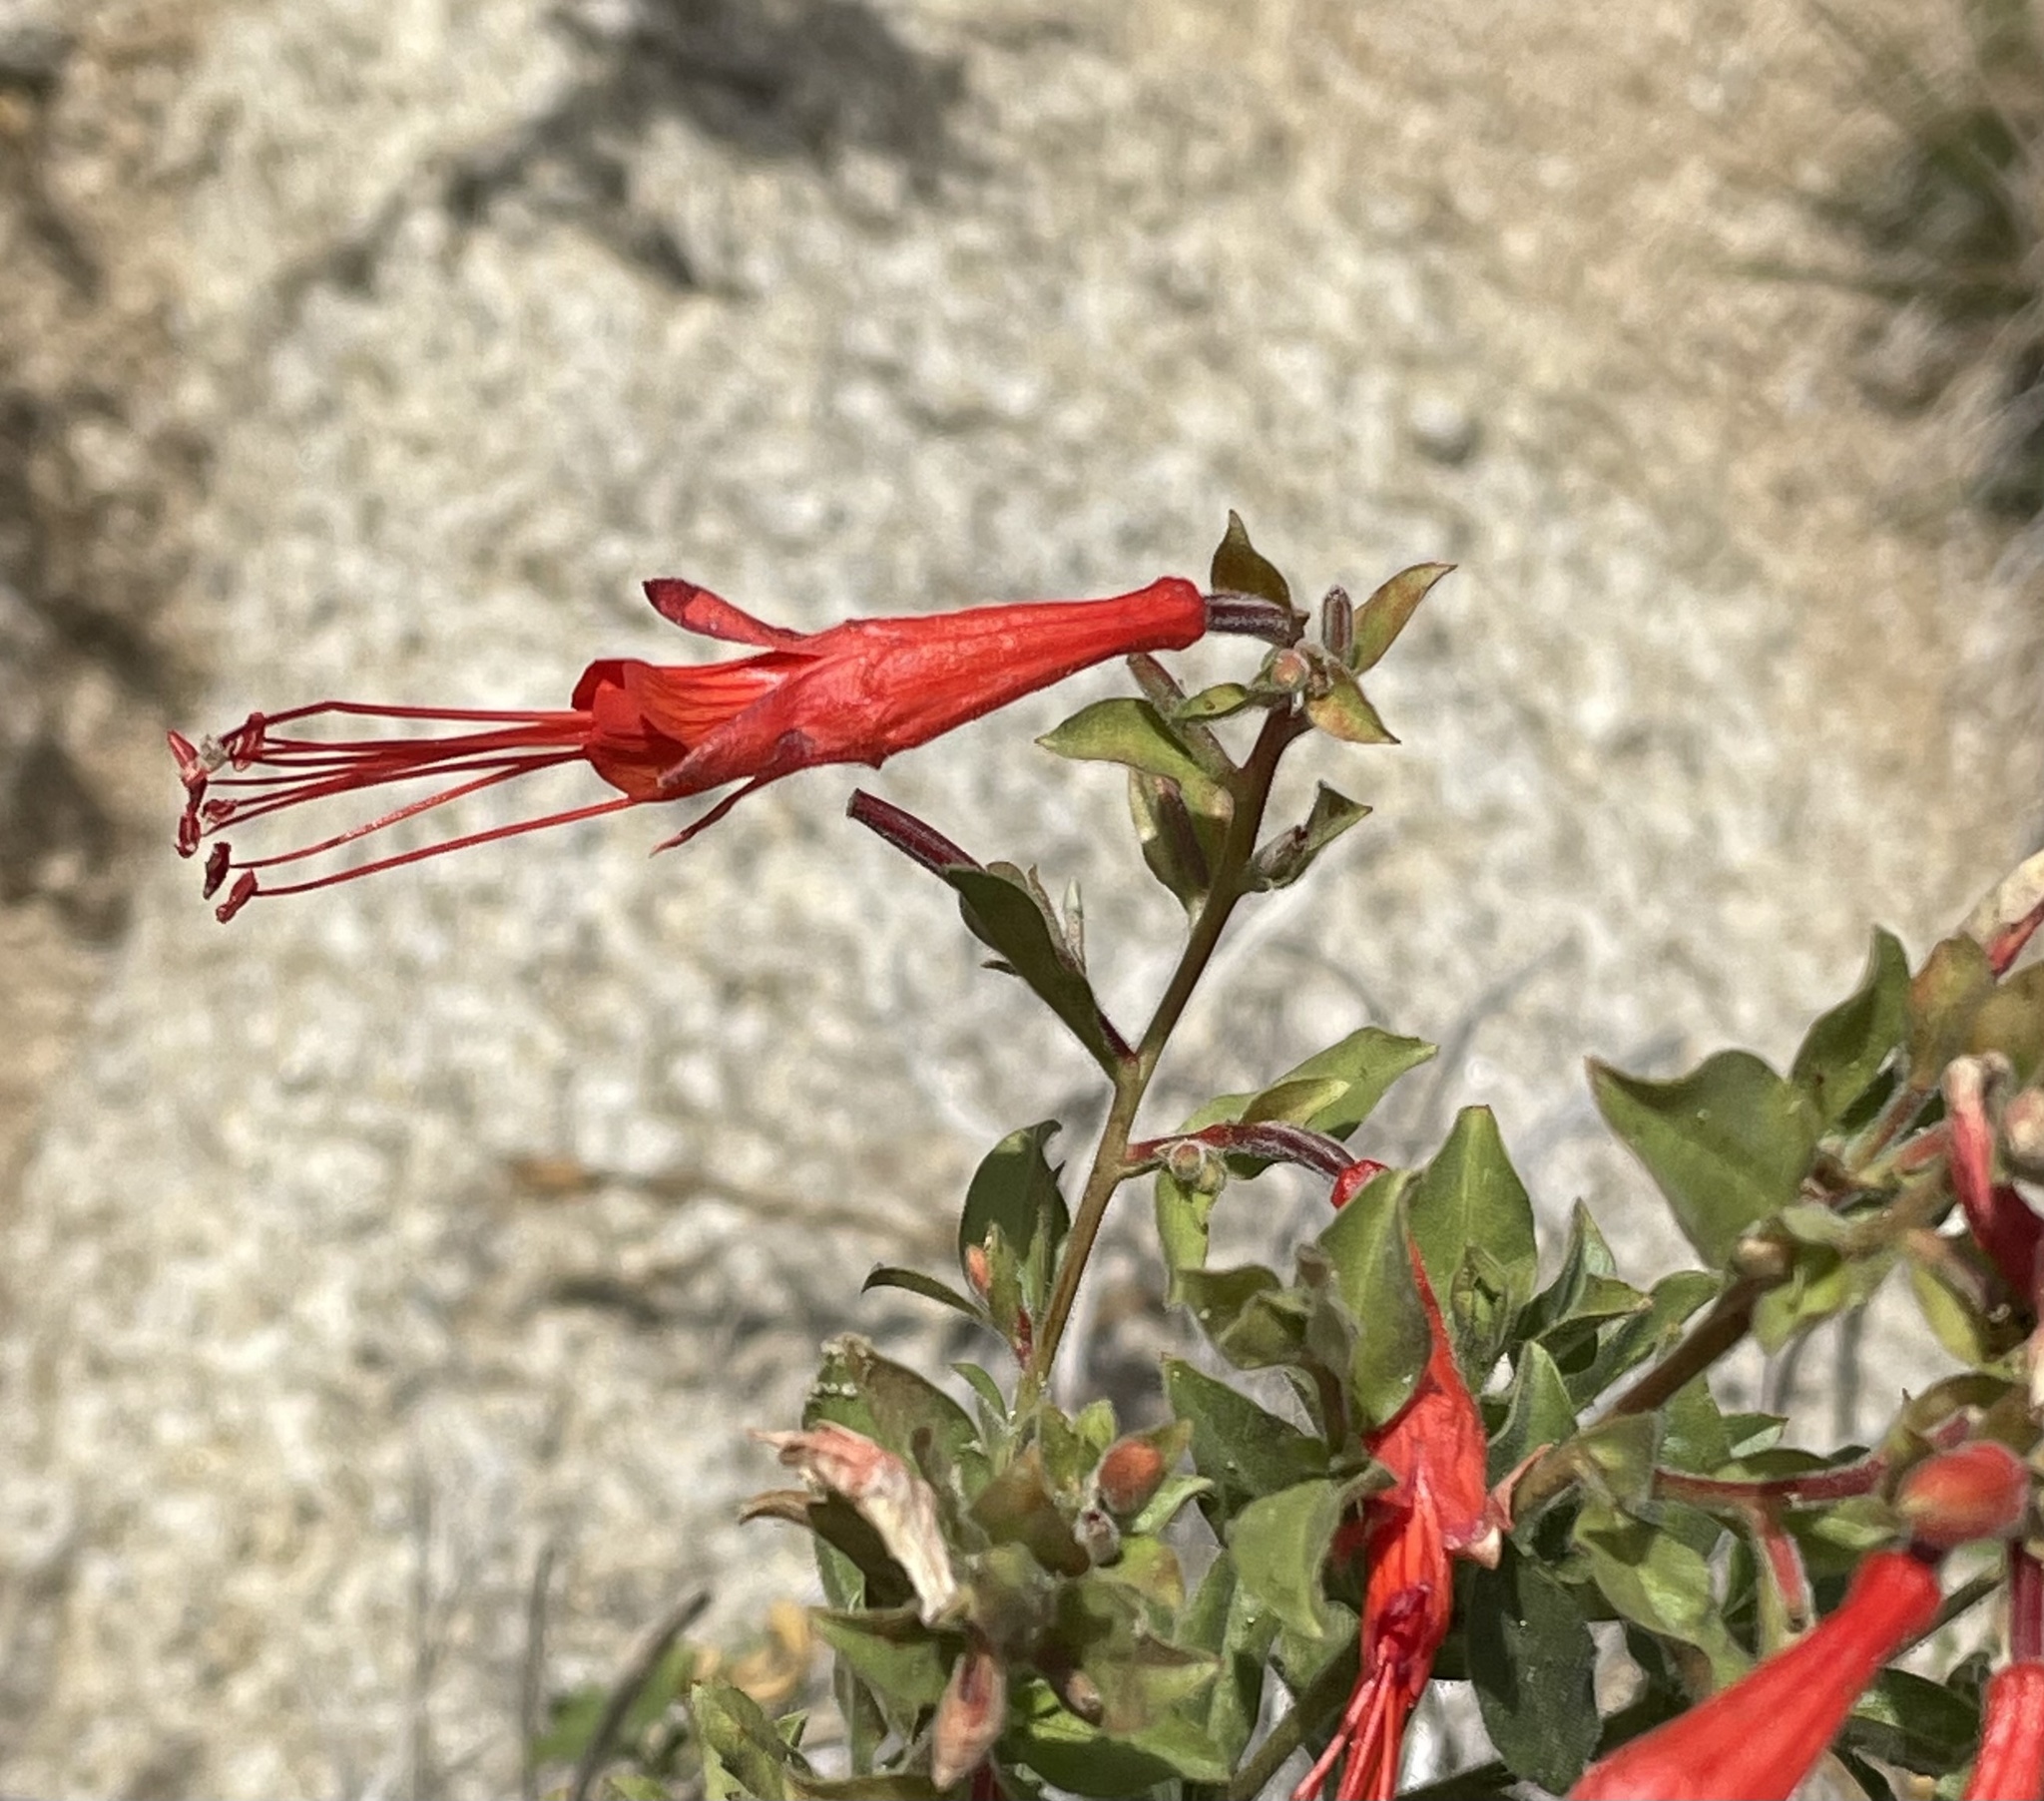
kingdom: Plantae
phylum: Tracheophyta
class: Magnoliopsida
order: Myrtales
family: Onagraceae
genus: Epilobium
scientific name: Epilobium canum
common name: California-fuchsia
